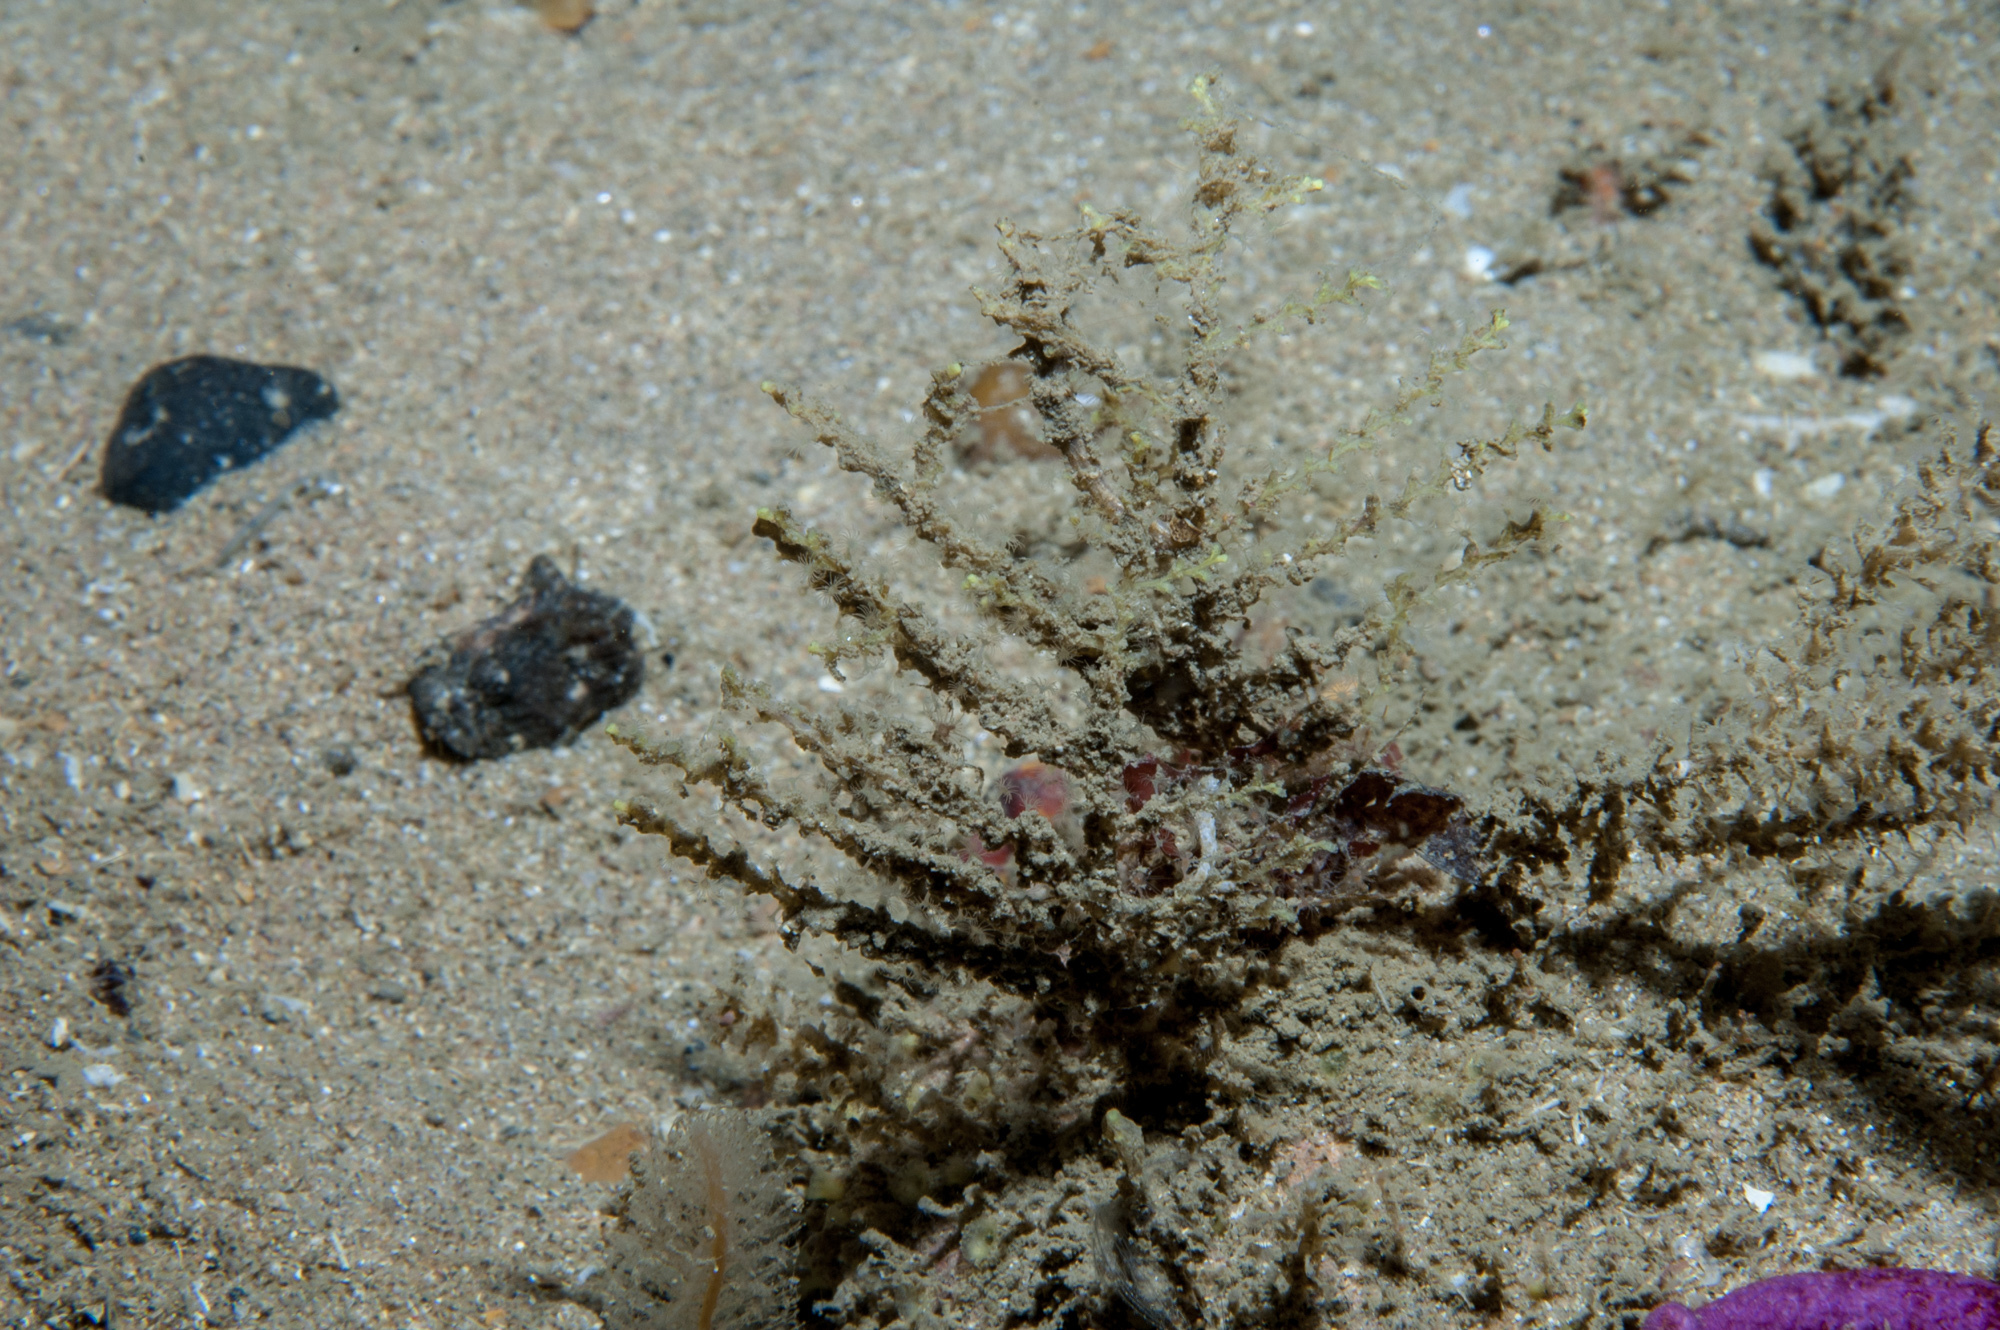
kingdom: Animalia
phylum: Cnidaria
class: Hydrozoa
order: Leptothecata
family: Sertularellidae
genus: Sertularella
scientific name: Sertularella gayi
